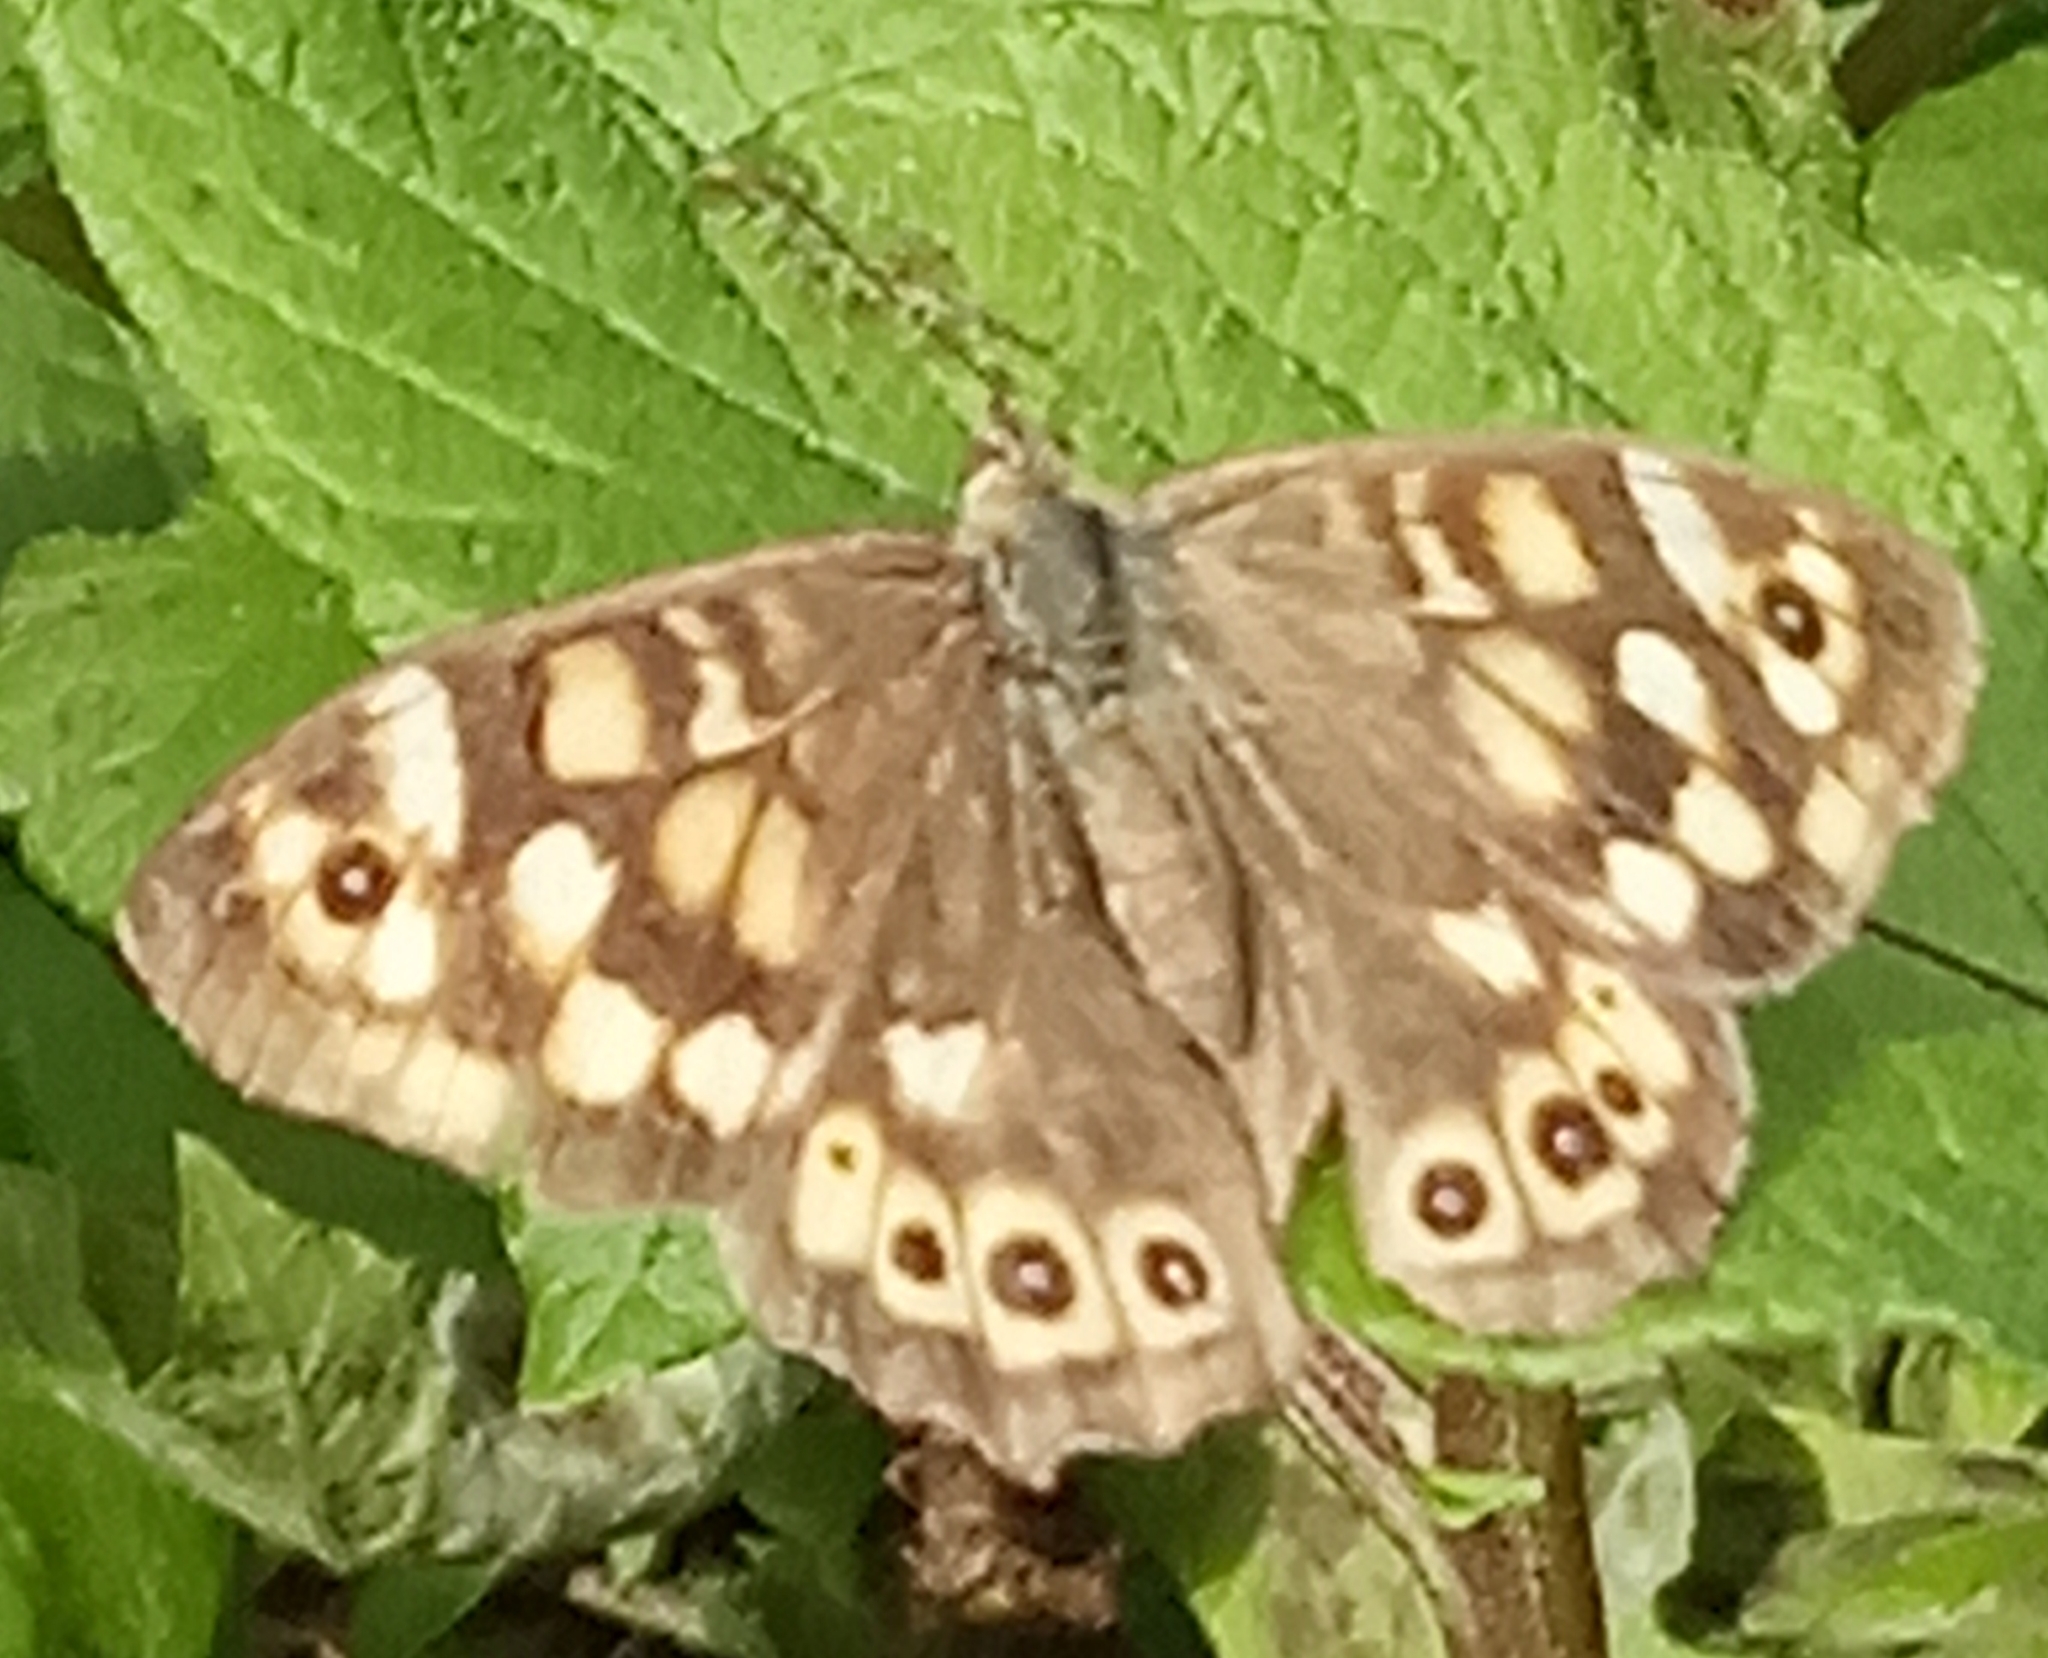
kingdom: Animalia
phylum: Arthropoda
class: Insecta
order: Lepidoptera
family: Nymphalidae
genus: Pararge
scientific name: Pararge aegeria
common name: Speckled wood
